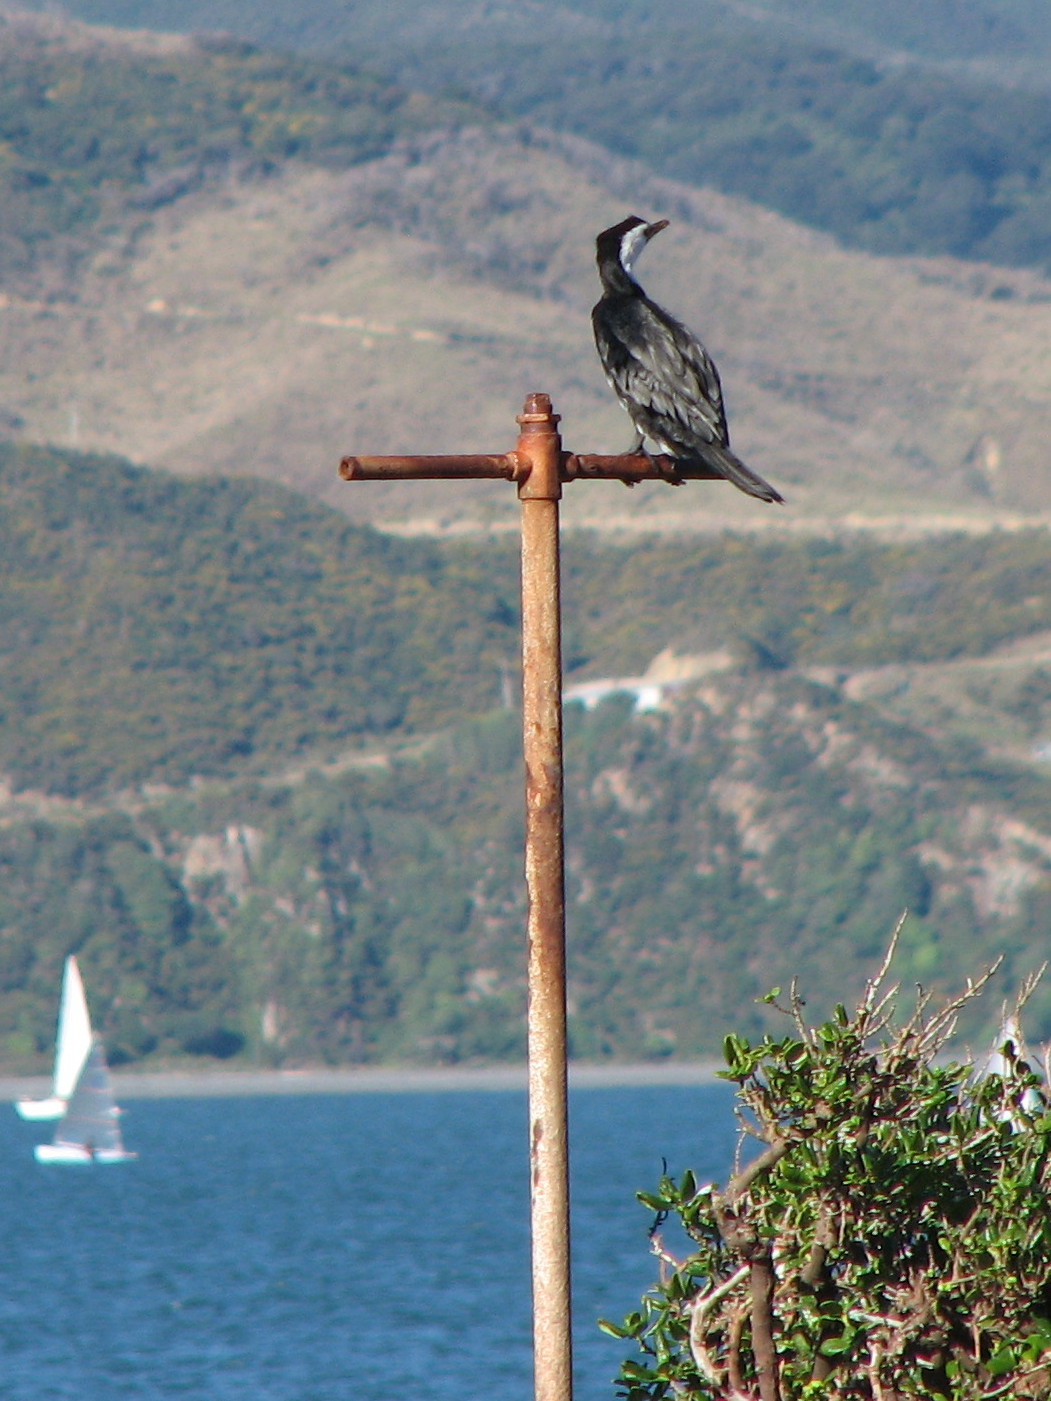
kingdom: Animalia
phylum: Chordata
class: Aves
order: Suliformes
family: Phalacrocoracidae
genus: Microcarbo
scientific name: Microcarbo melanoleucos
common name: Little pied cormorant
